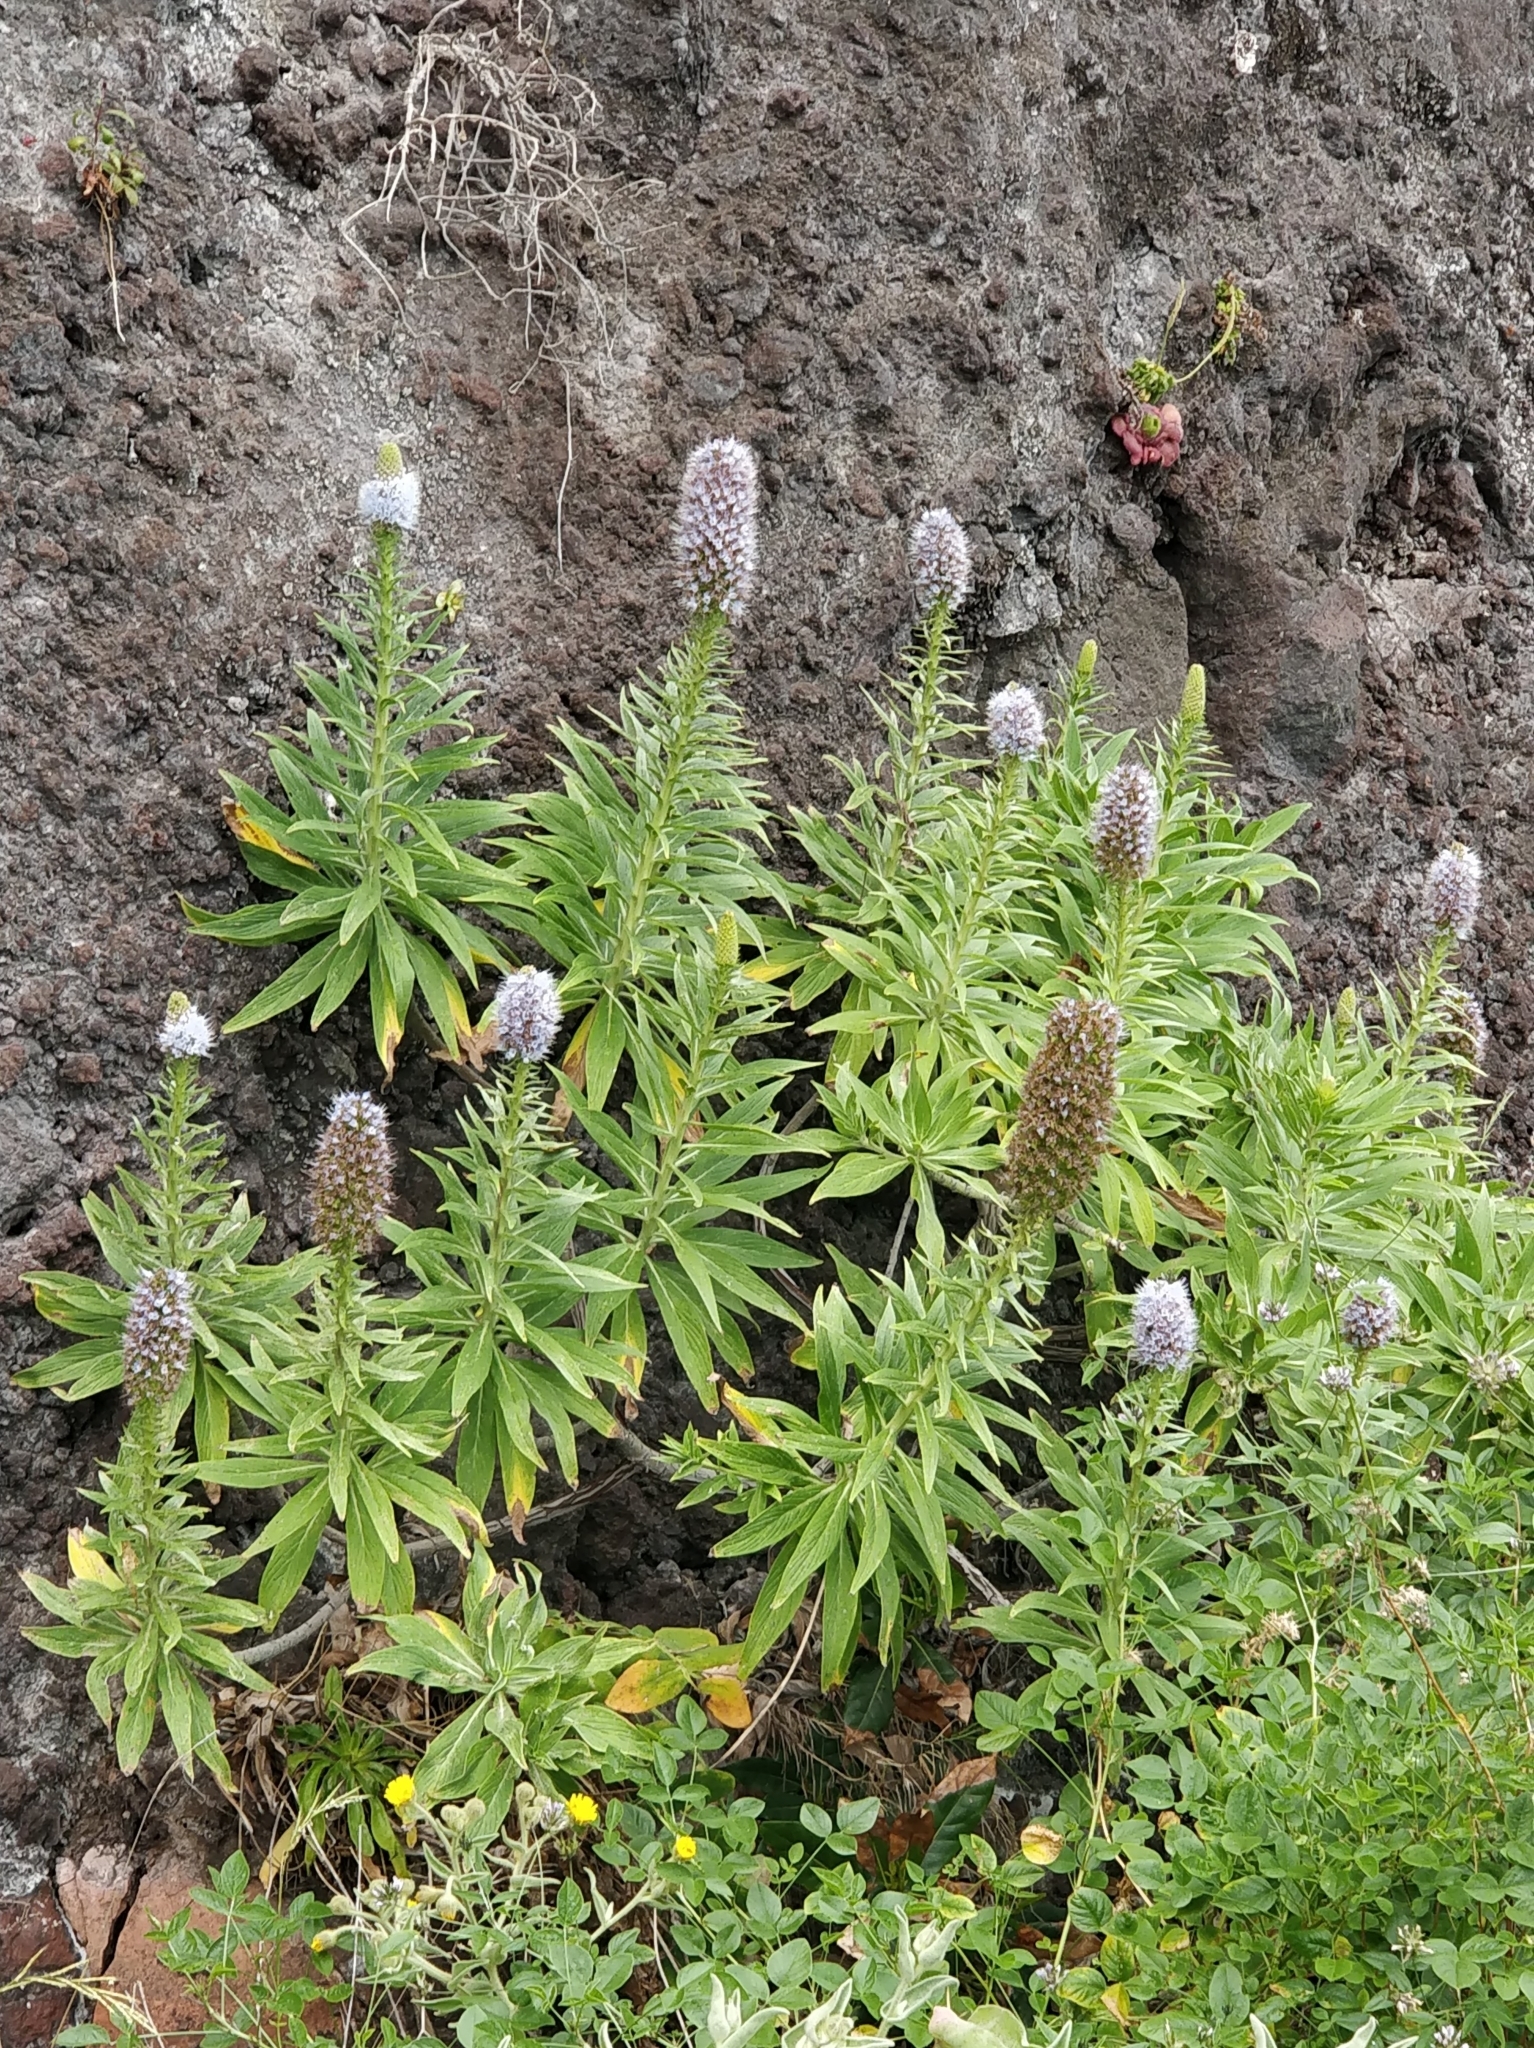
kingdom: Plantae
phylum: Tracheophyta
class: Magnoliopsida
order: Boraginales
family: Boraginaceae
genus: Echium
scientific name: Echium nervosum
